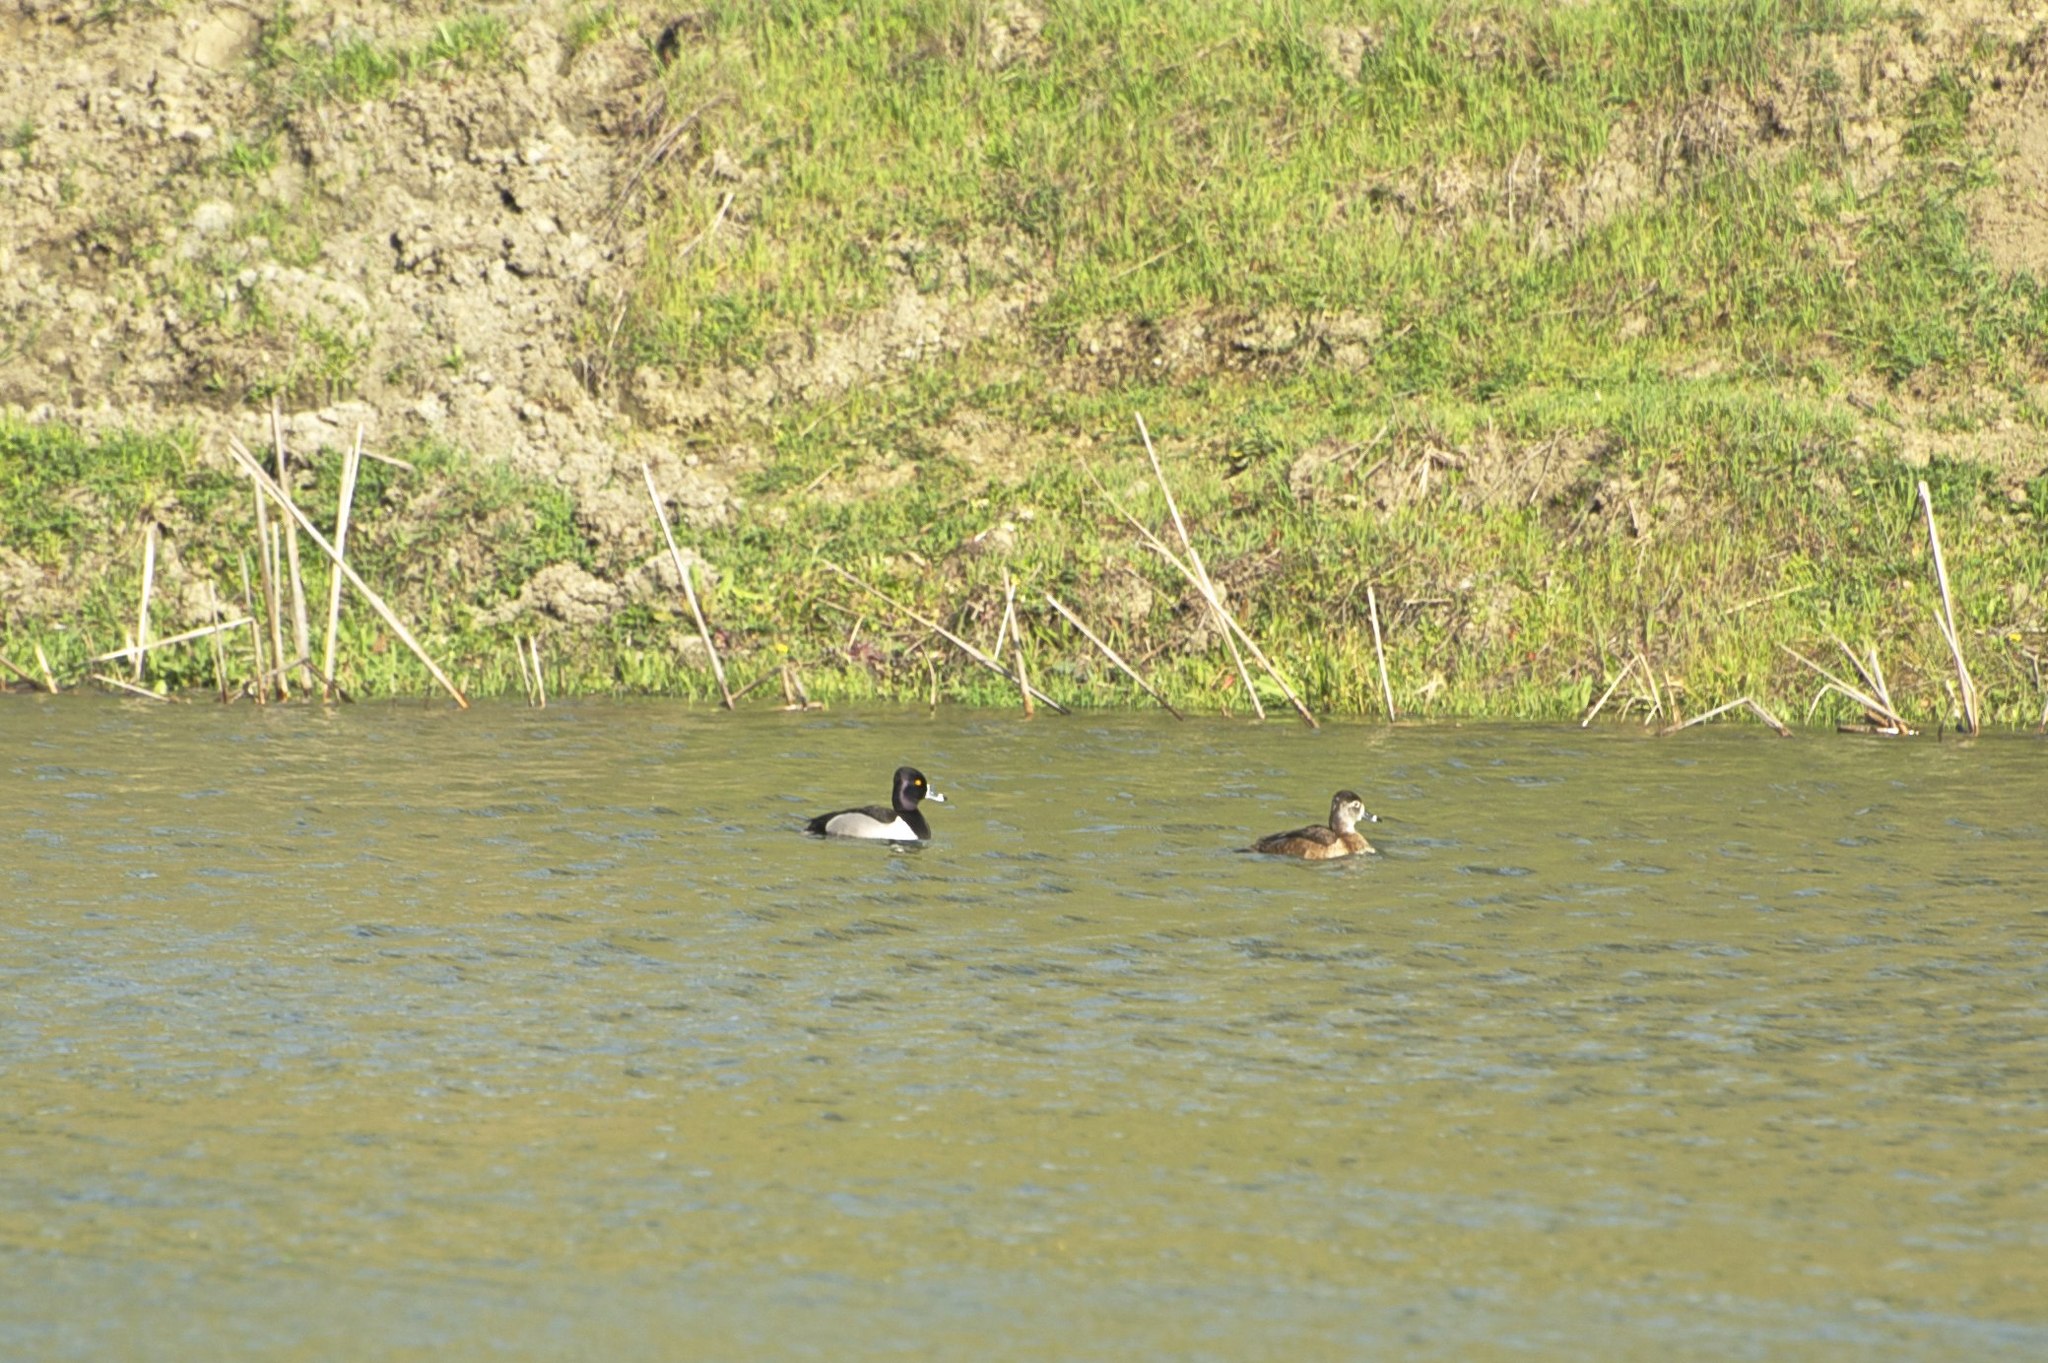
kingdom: Animalia
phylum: Chordata
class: Aves
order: Anseriformes
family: Anatidae
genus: Aythya
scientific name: Aythya collaris
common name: Ring-necked duck
